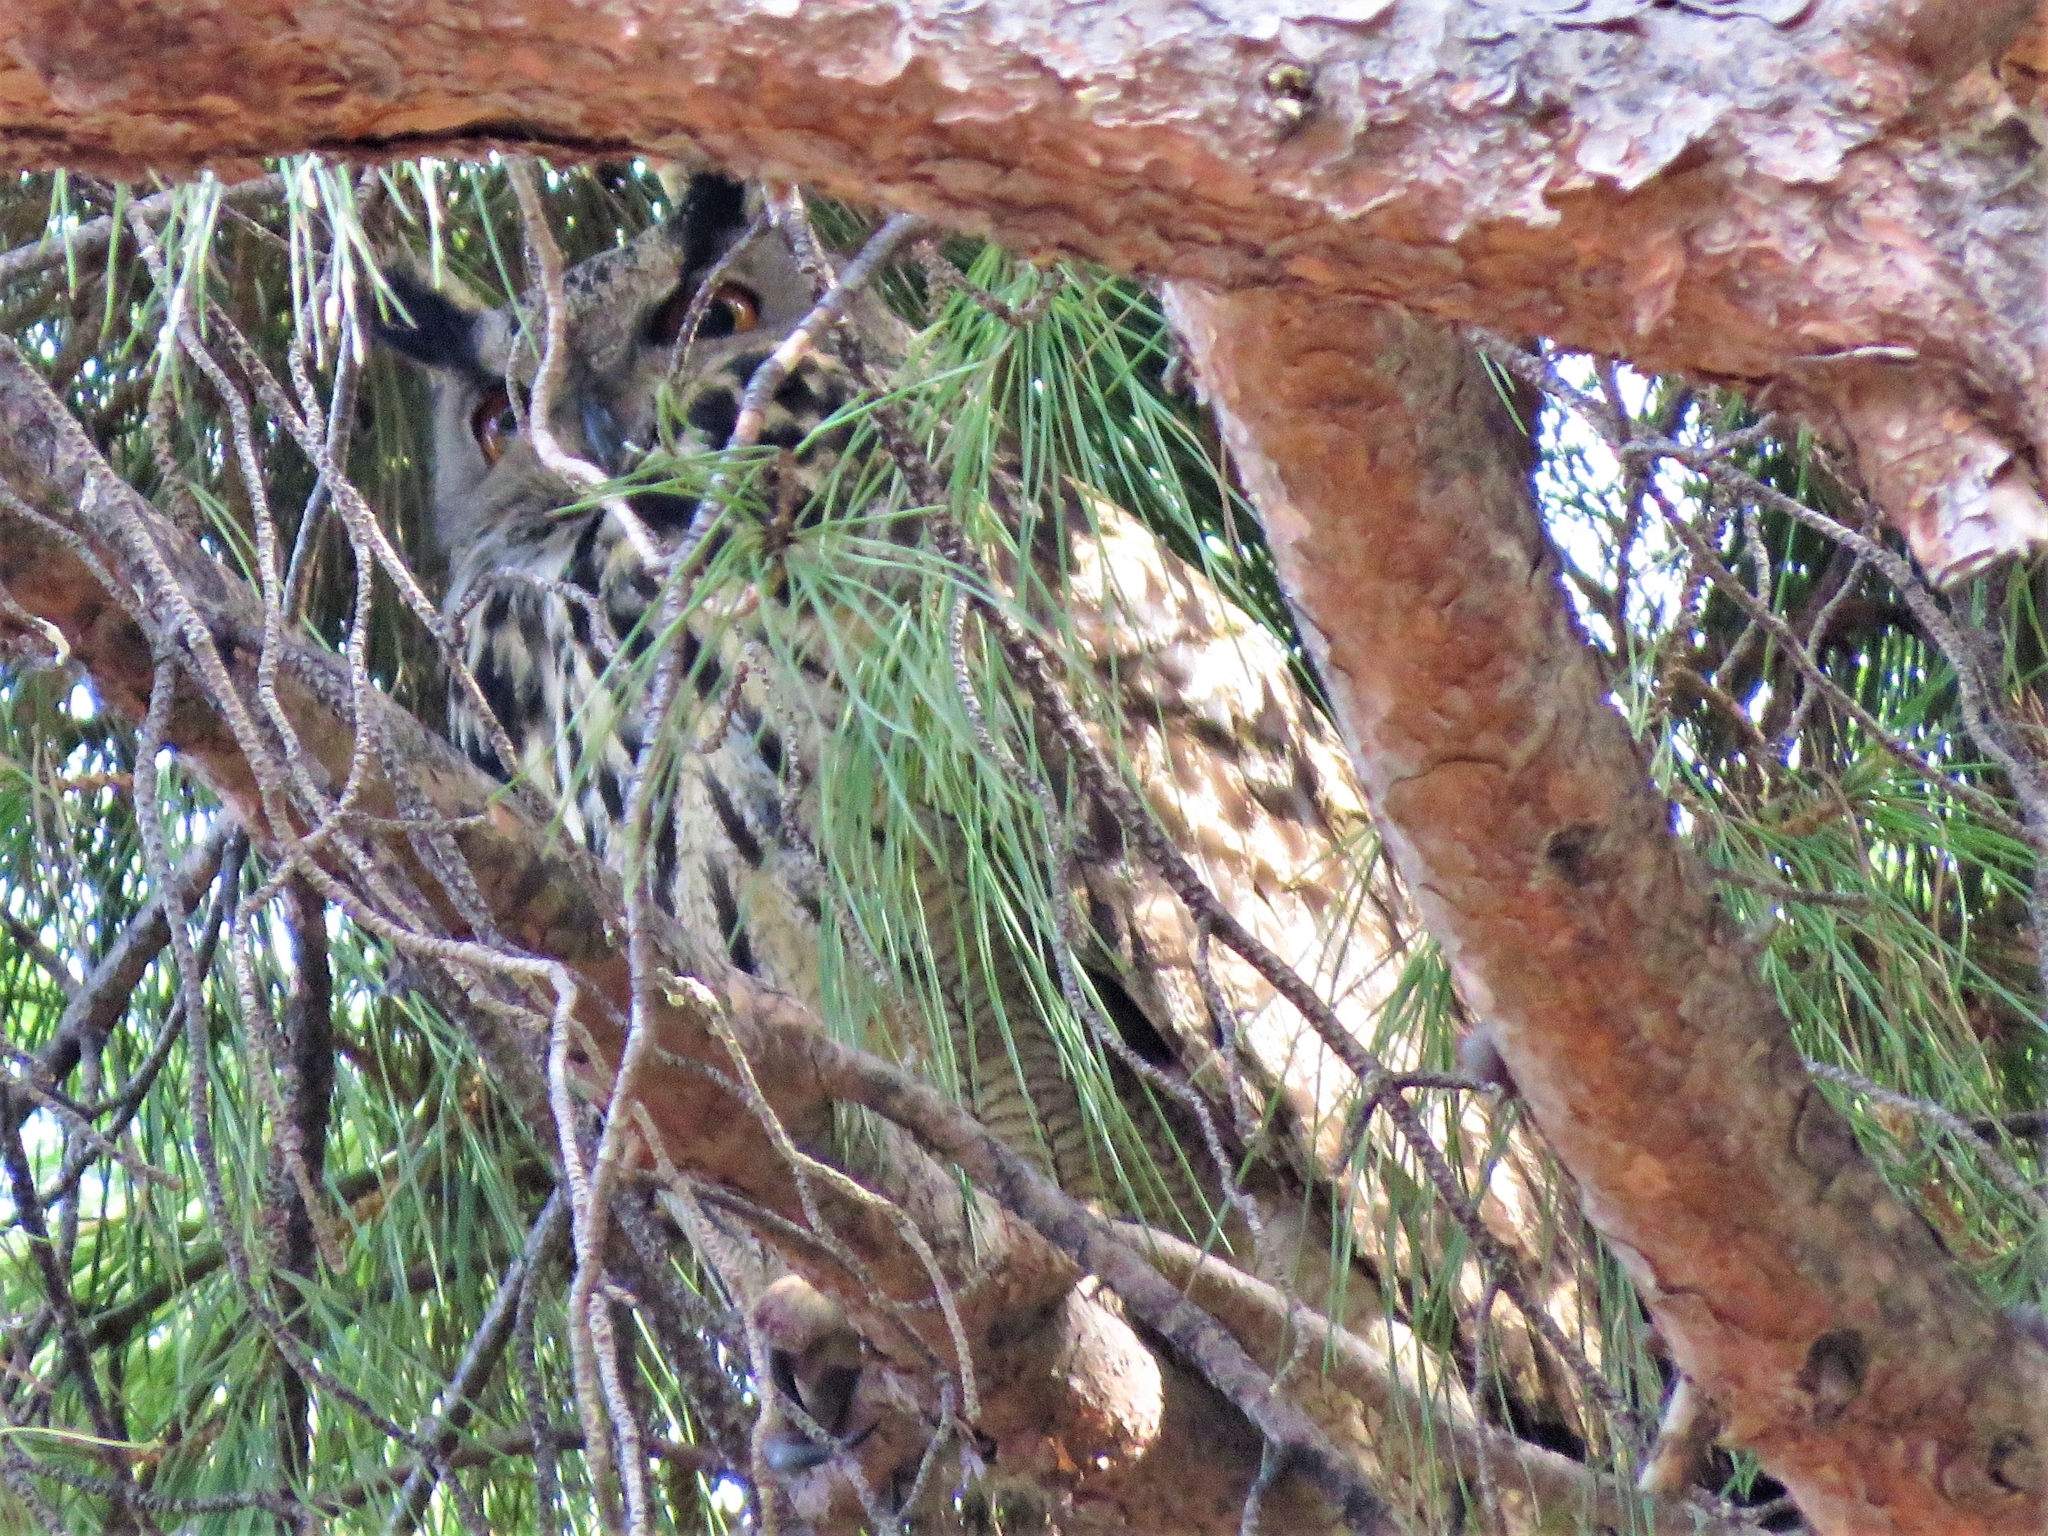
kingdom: Animalia
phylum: Chordata
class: Aves
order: Strigiformes
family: Strigidae
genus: Bubo
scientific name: Bubo bubo
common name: Eurasian eagle-owl
